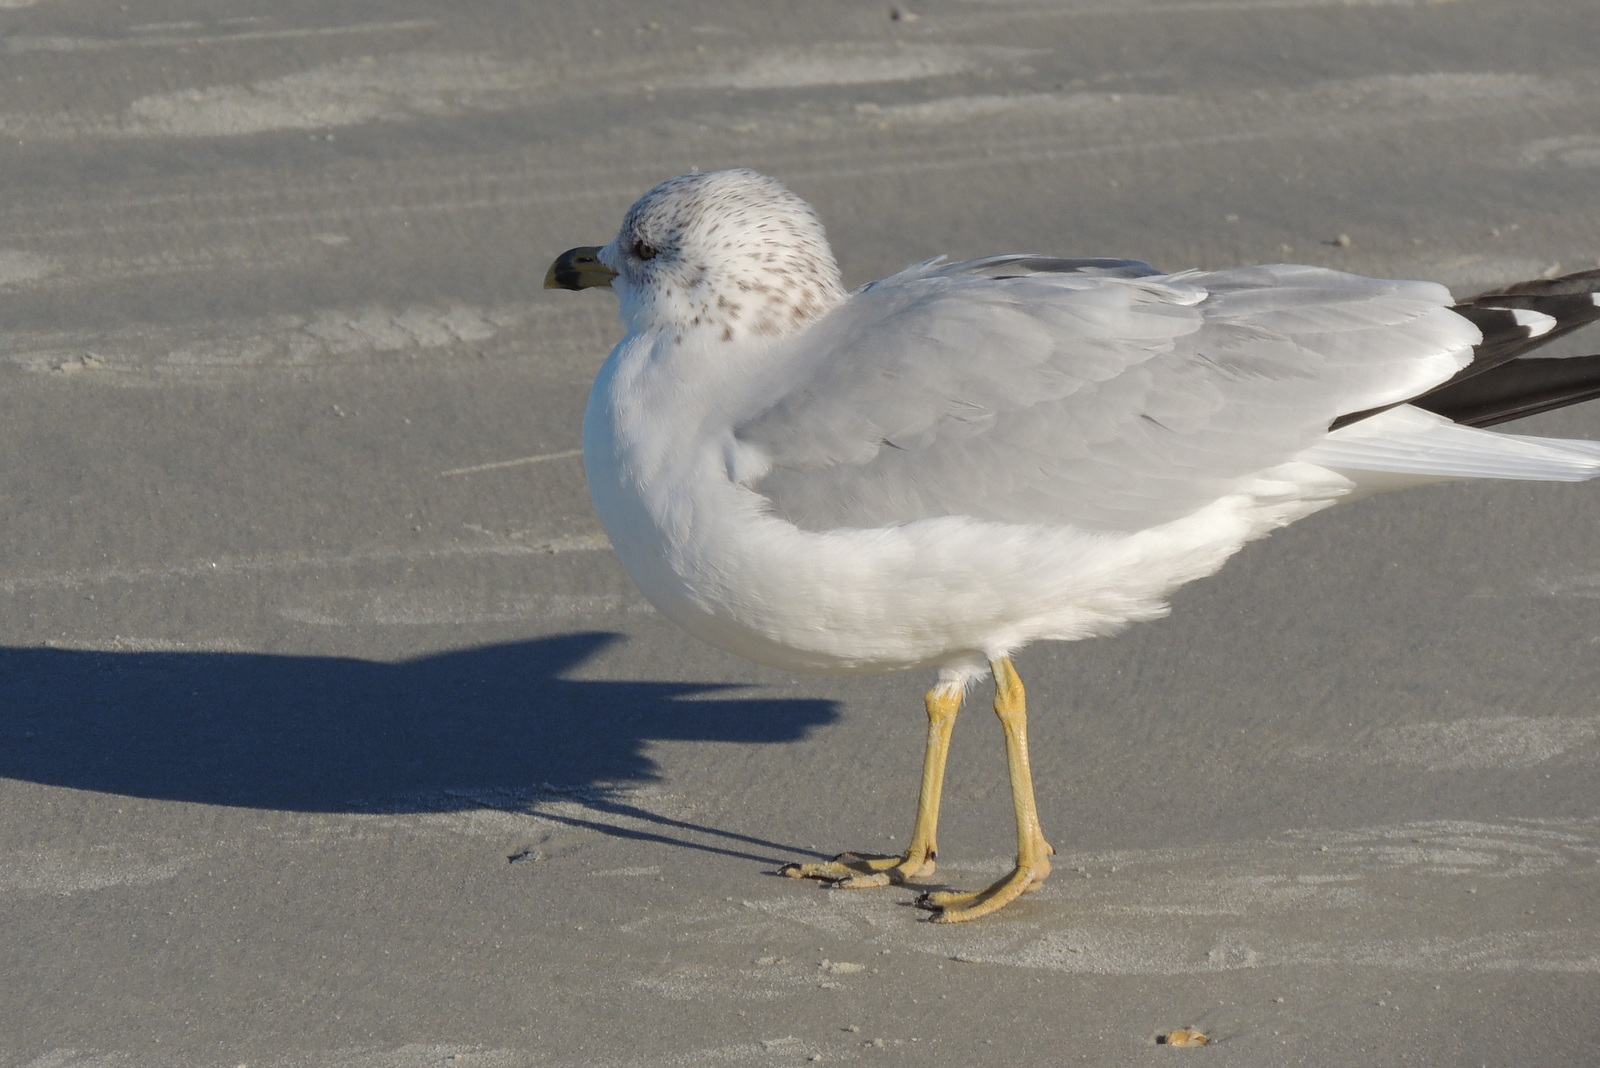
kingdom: Animalia
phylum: Chordata
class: Aves
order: Charadriiformes
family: Laridae
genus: Larus
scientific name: Larus delawarensis
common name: Ring-billed gull
